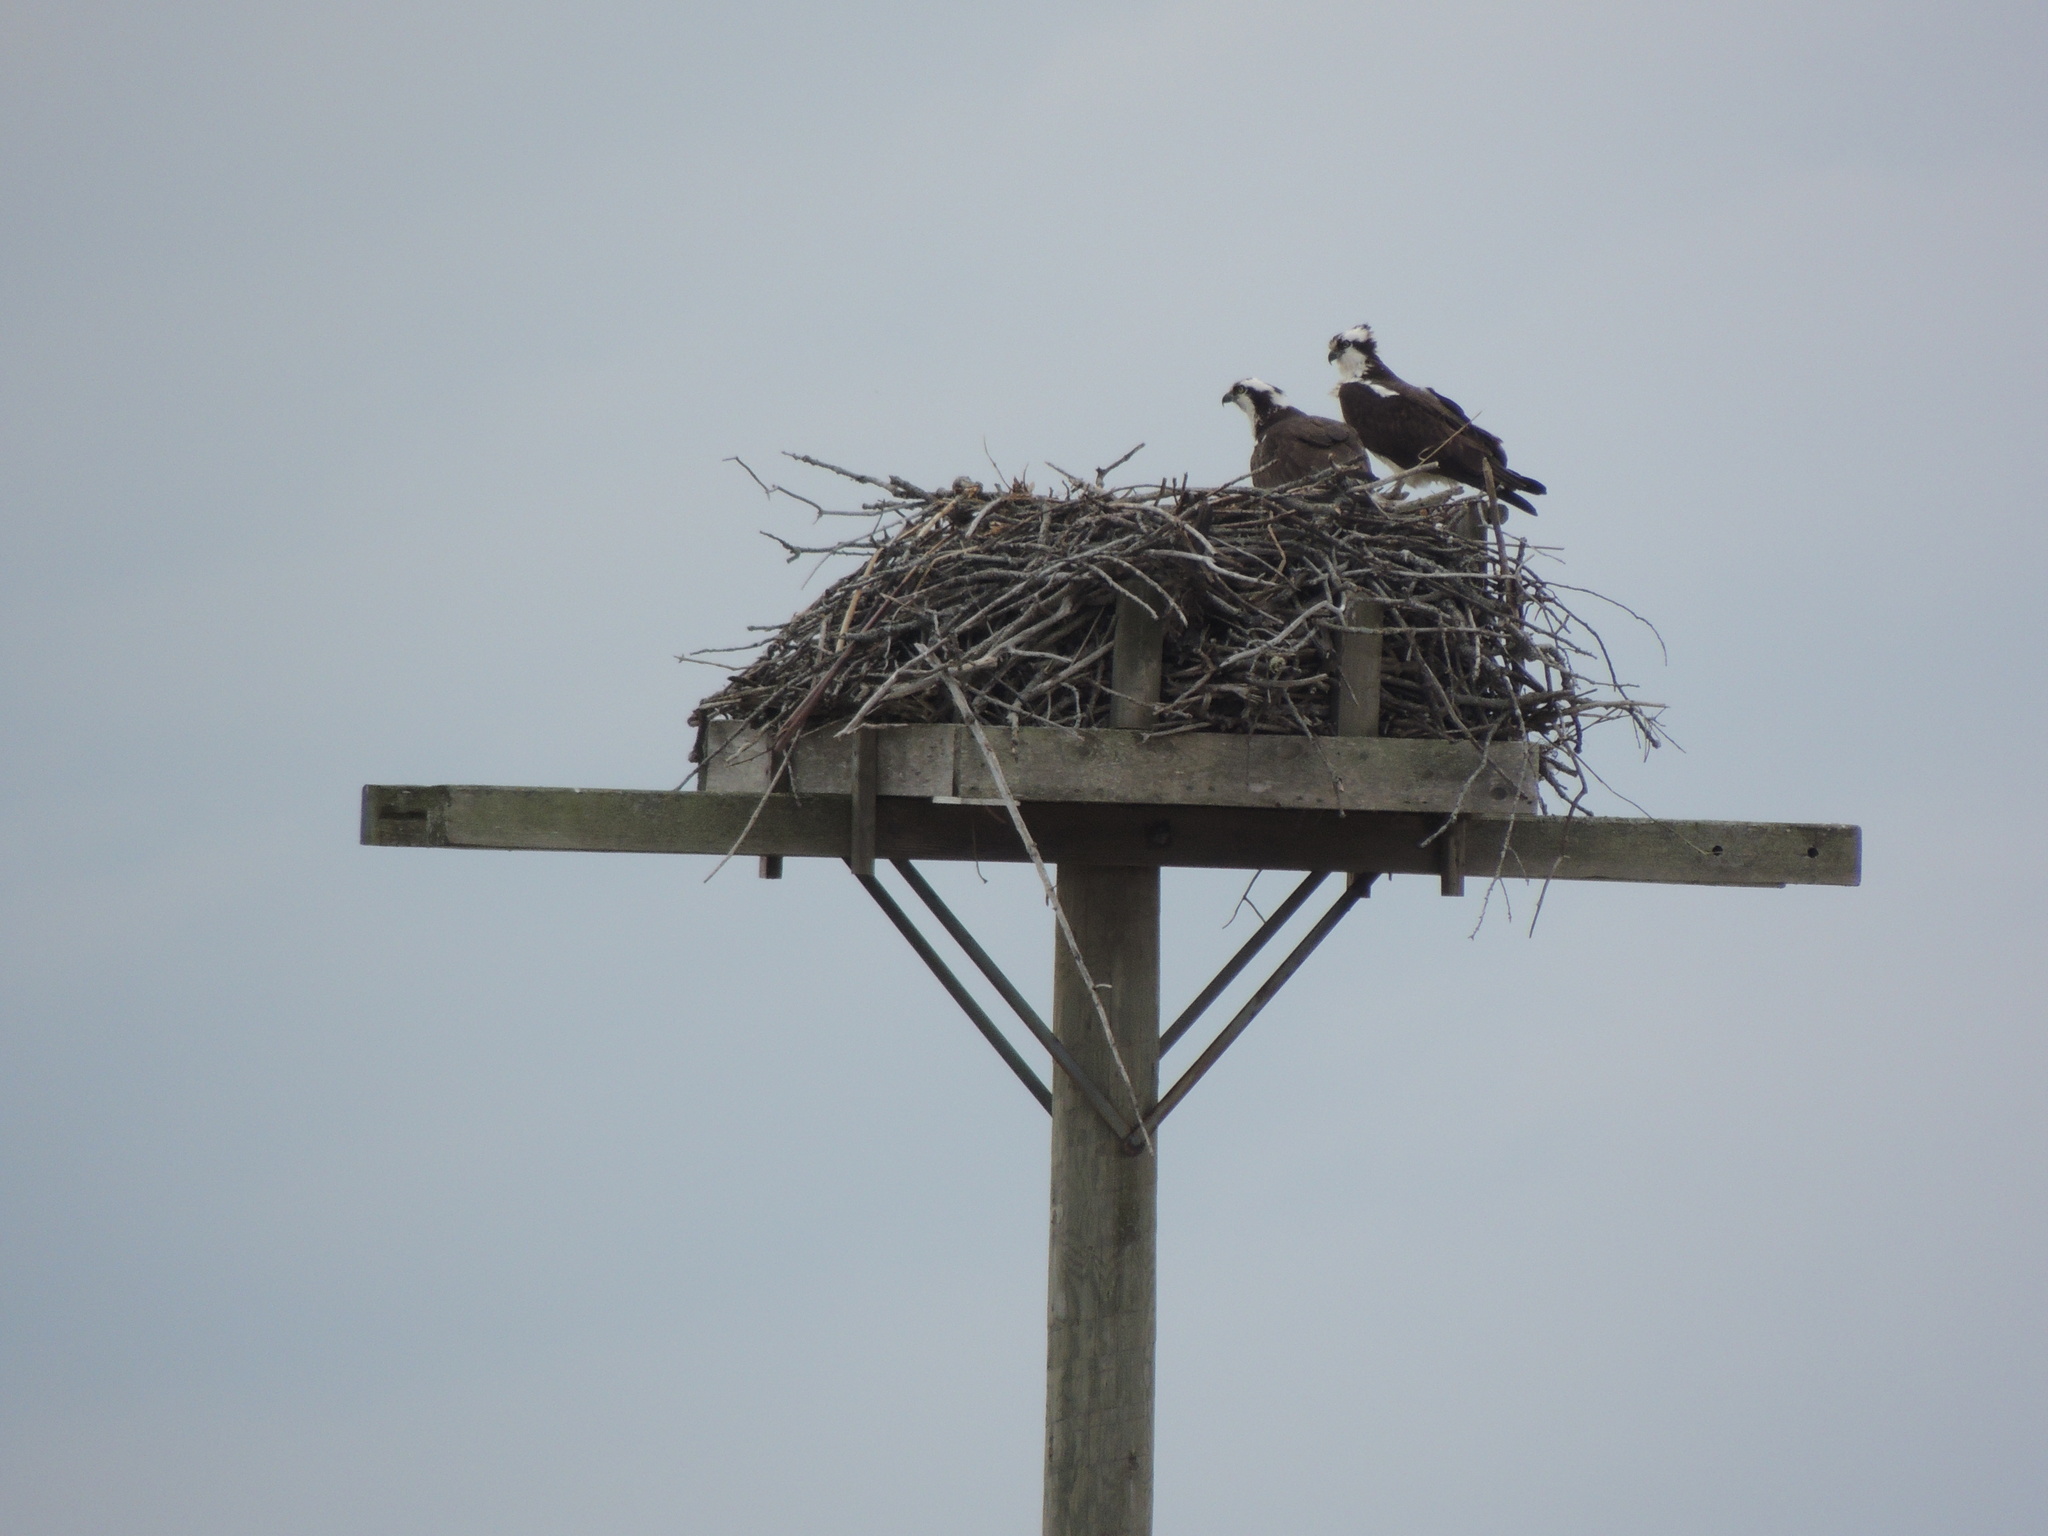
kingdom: Animalia
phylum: Chordata
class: Aves
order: Accipitriformes
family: Pandionidae
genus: Pandion
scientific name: Pandion haliaetus
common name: Osprey
